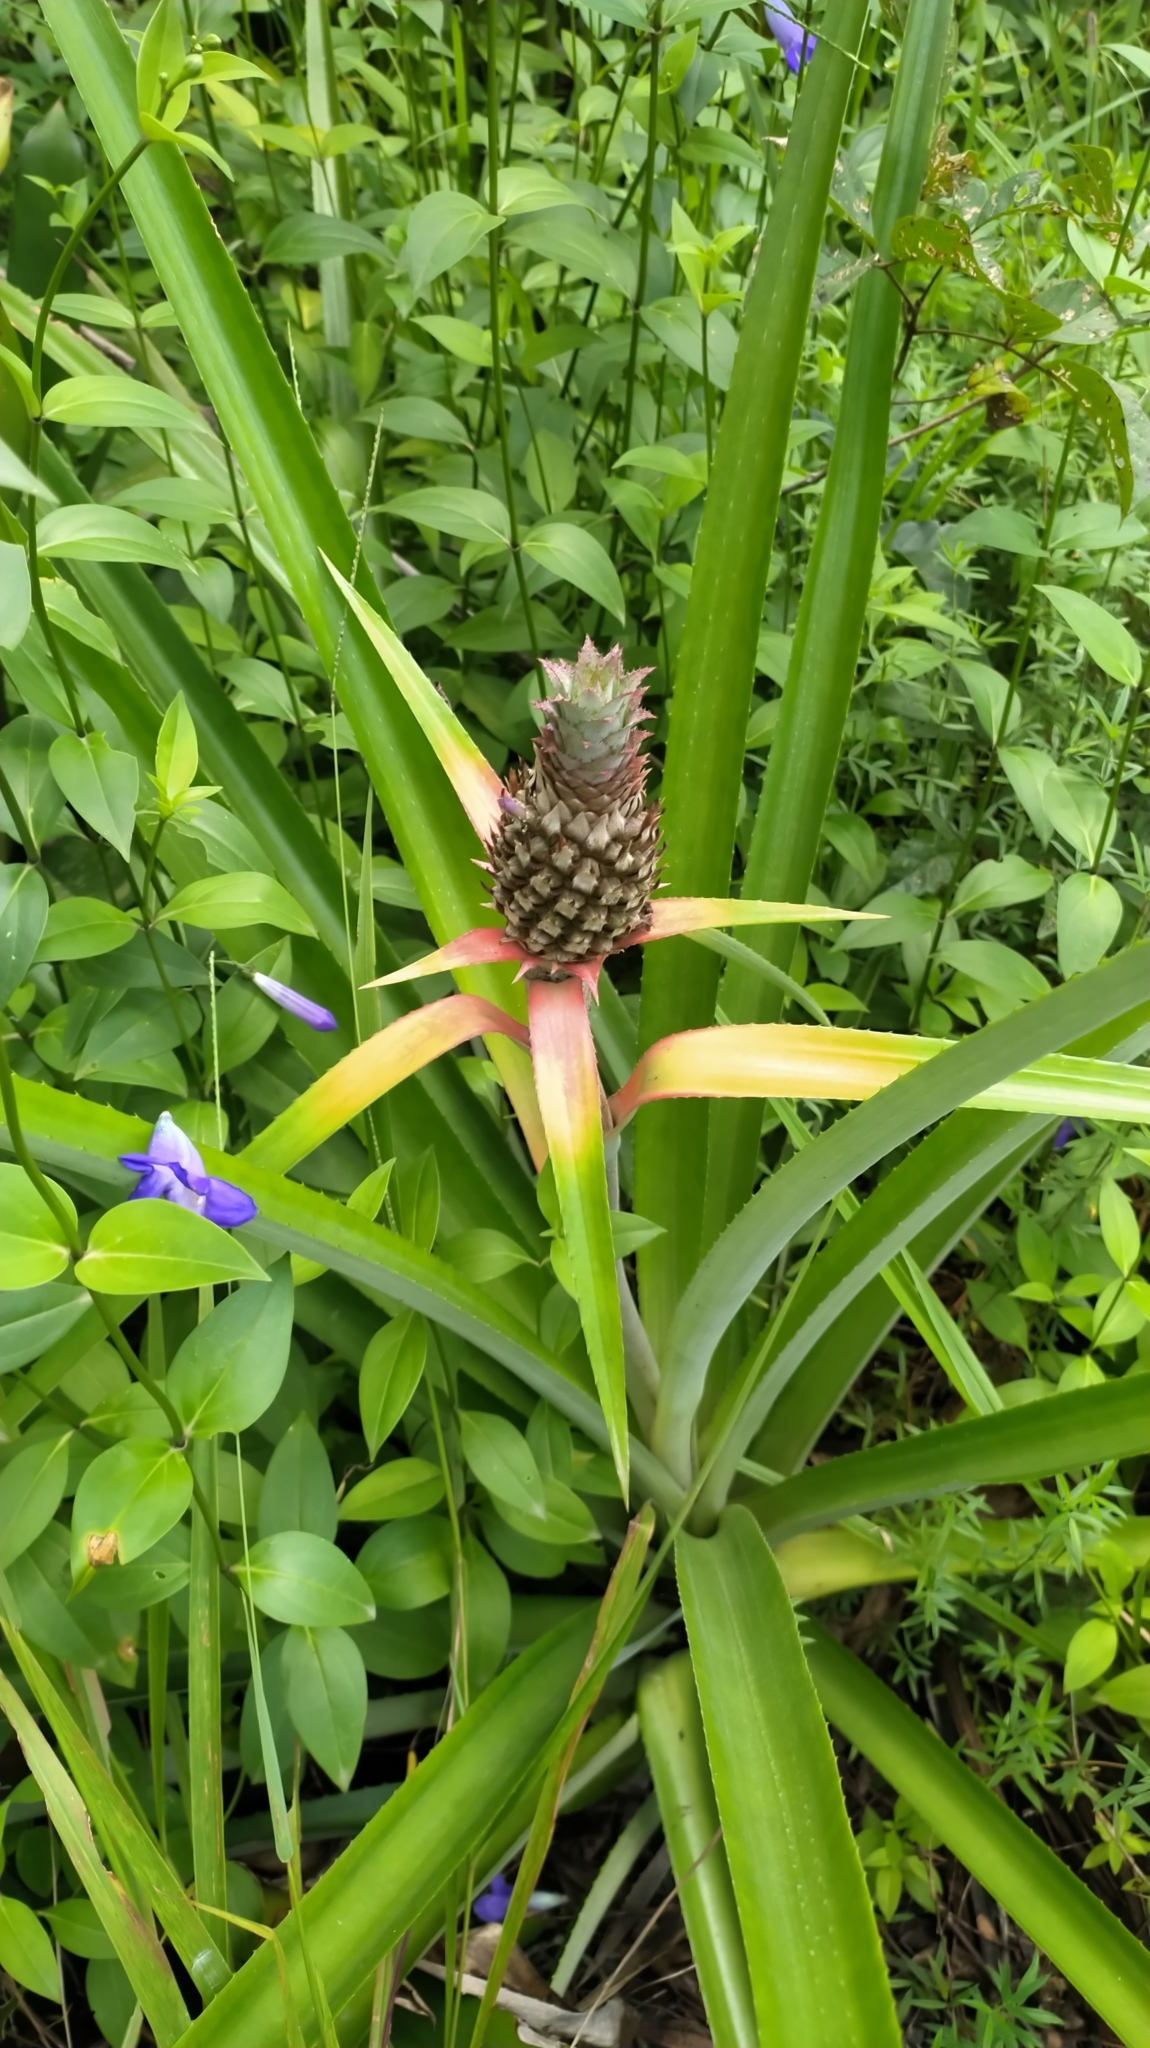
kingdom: Plantae
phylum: Tracheophyta
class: Liliopsida
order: Poales
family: Bromeliaceae
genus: Ananas
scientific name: Ananas comosus
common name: Pineapple
